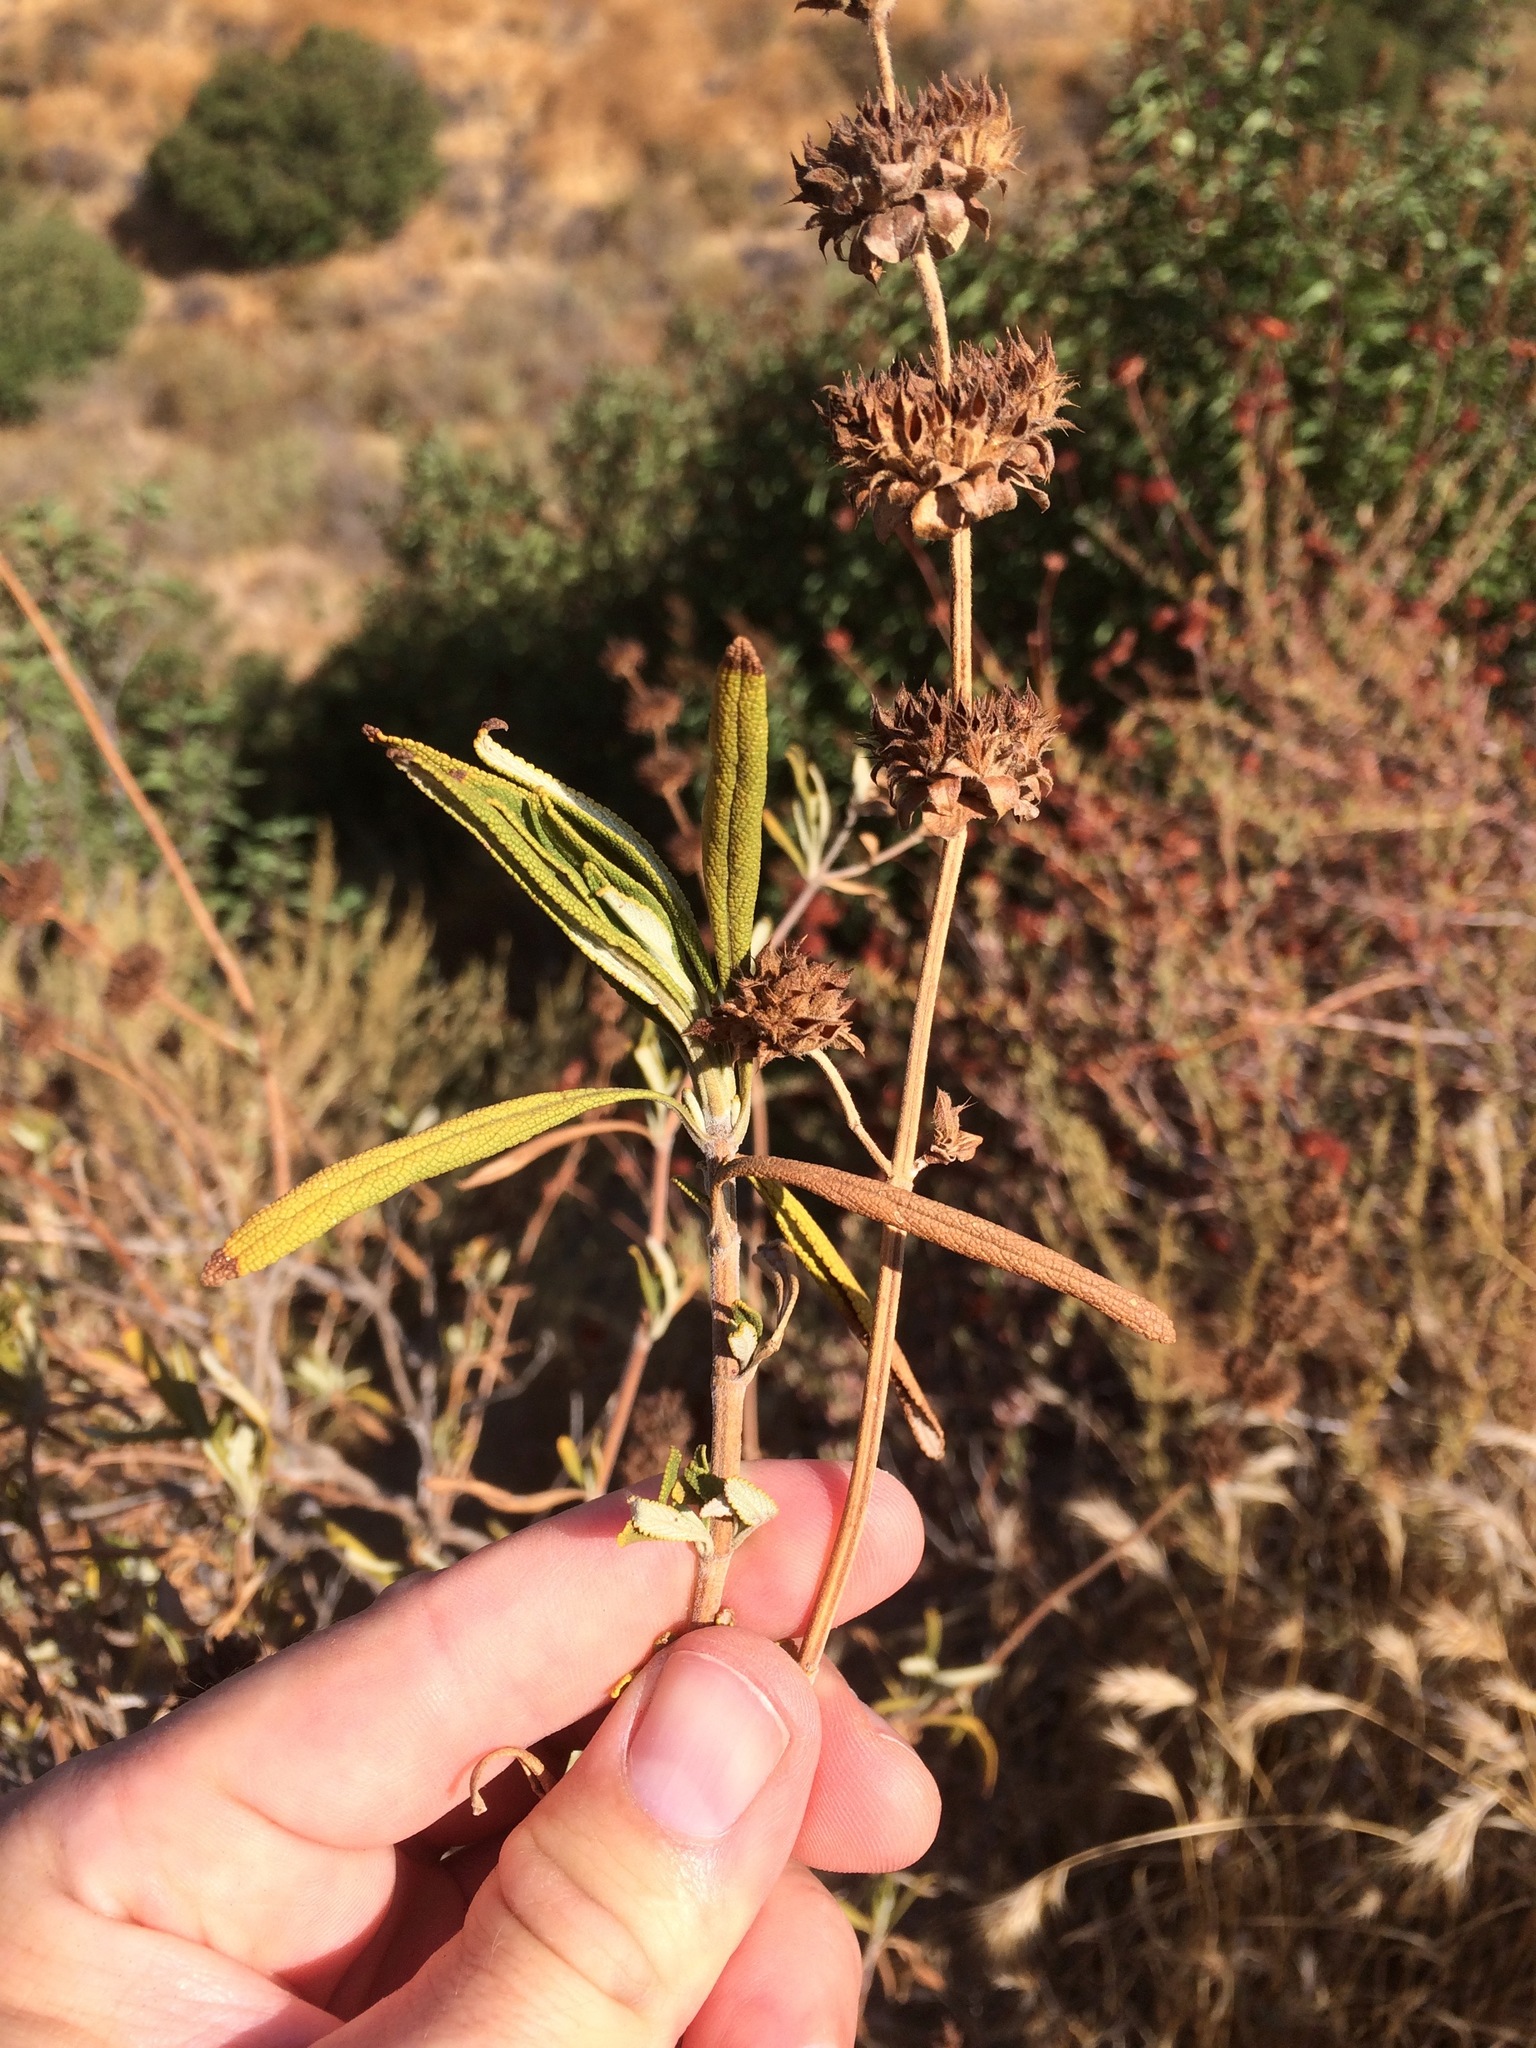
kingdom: Plantae
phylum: Tracheophyta
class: Magnoliopsida
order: Lamiales
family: Lamiaceae
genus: Salvia
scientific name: Salvia mellifera
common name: Black sage
